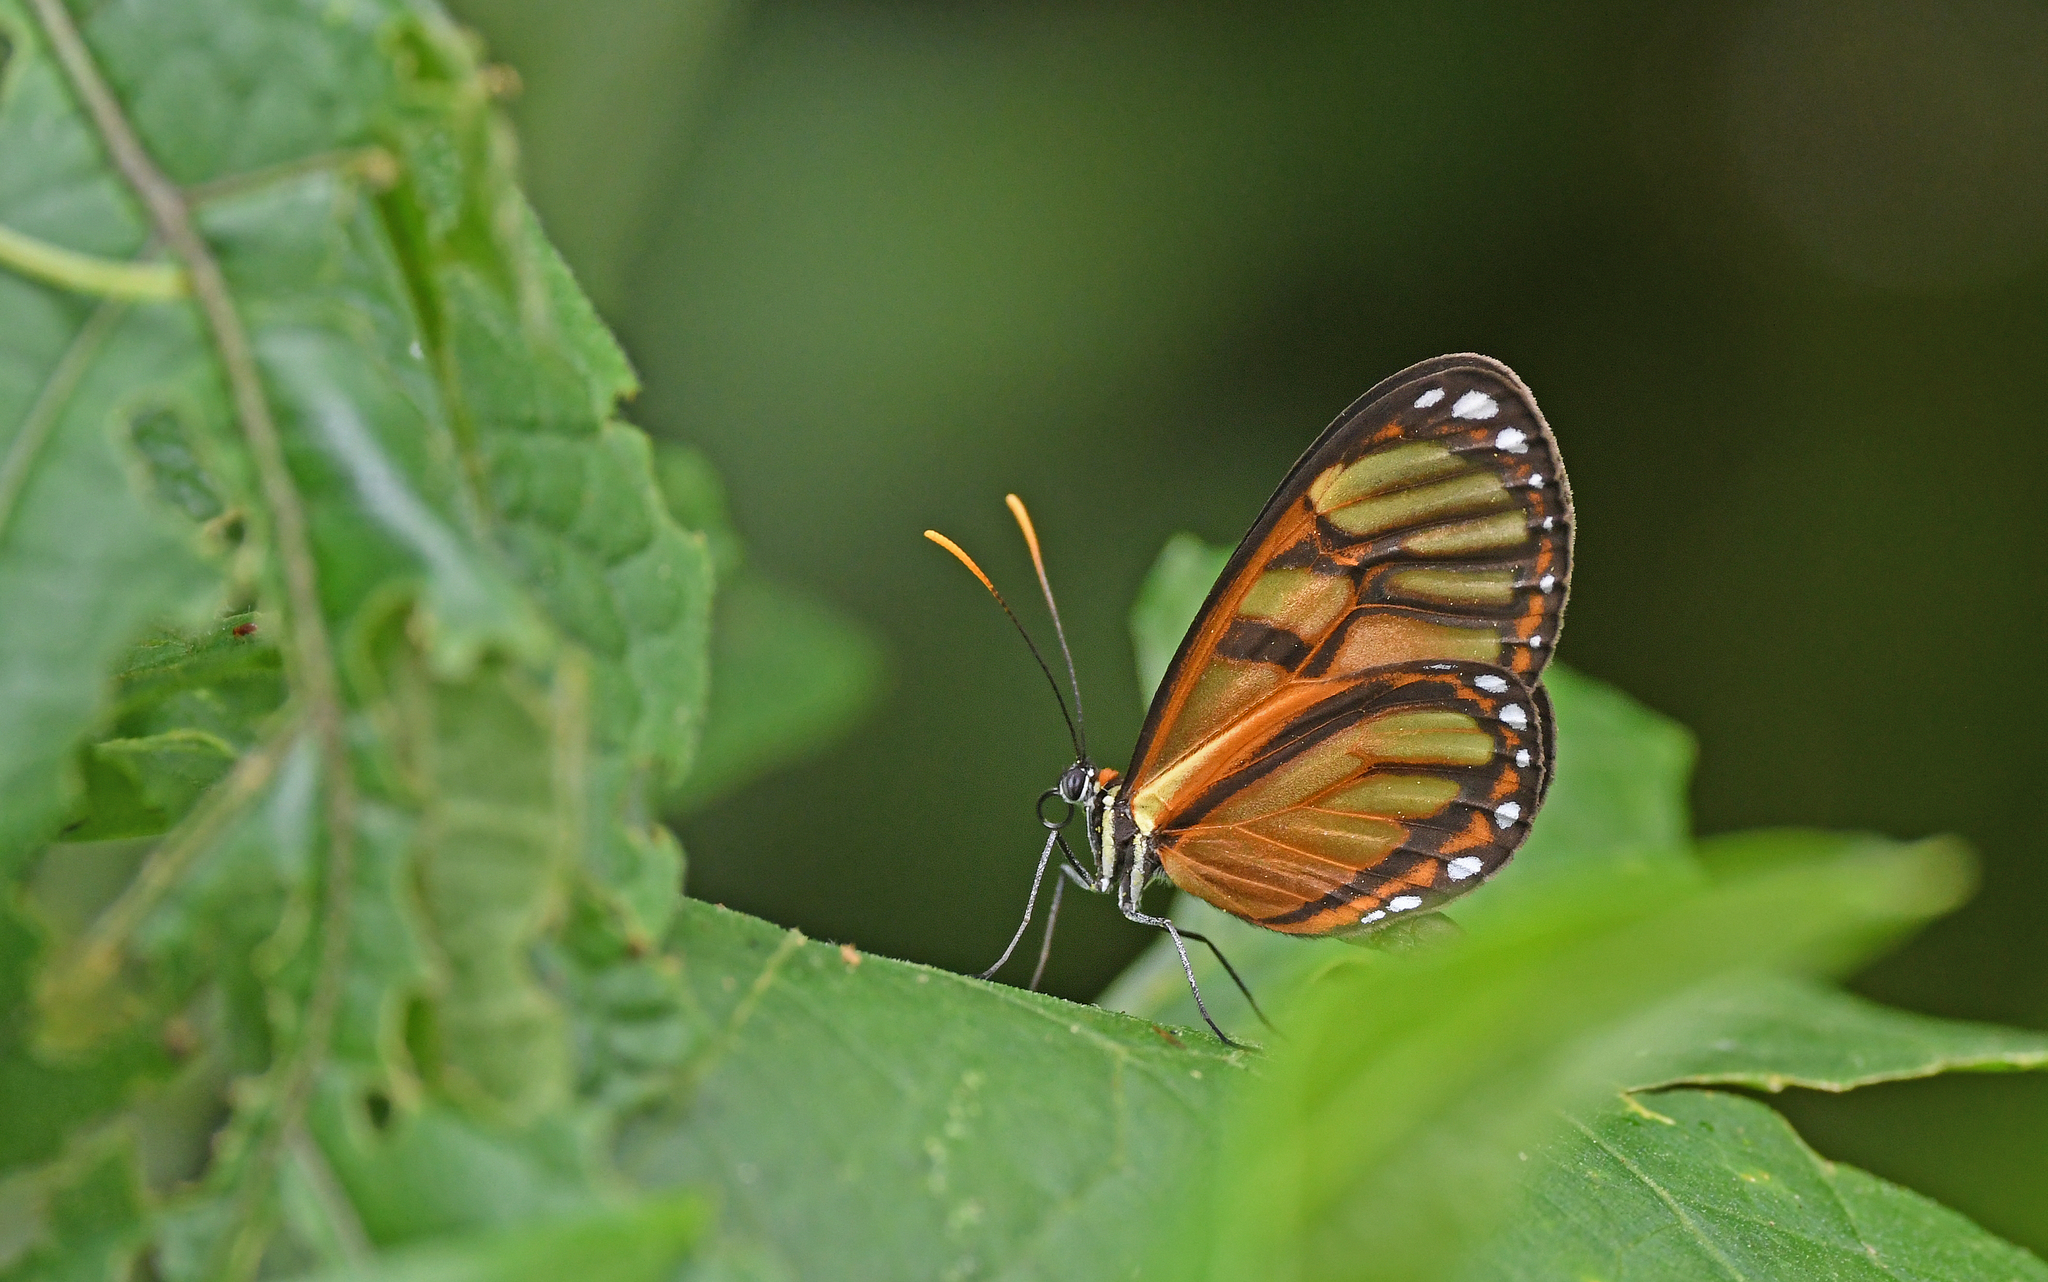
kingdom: Animalia
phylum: Arthropoda
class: Insecta
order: Lepidoptera
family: Nymphalidae
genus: Ithomia
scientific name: Ithomia iphianassa
